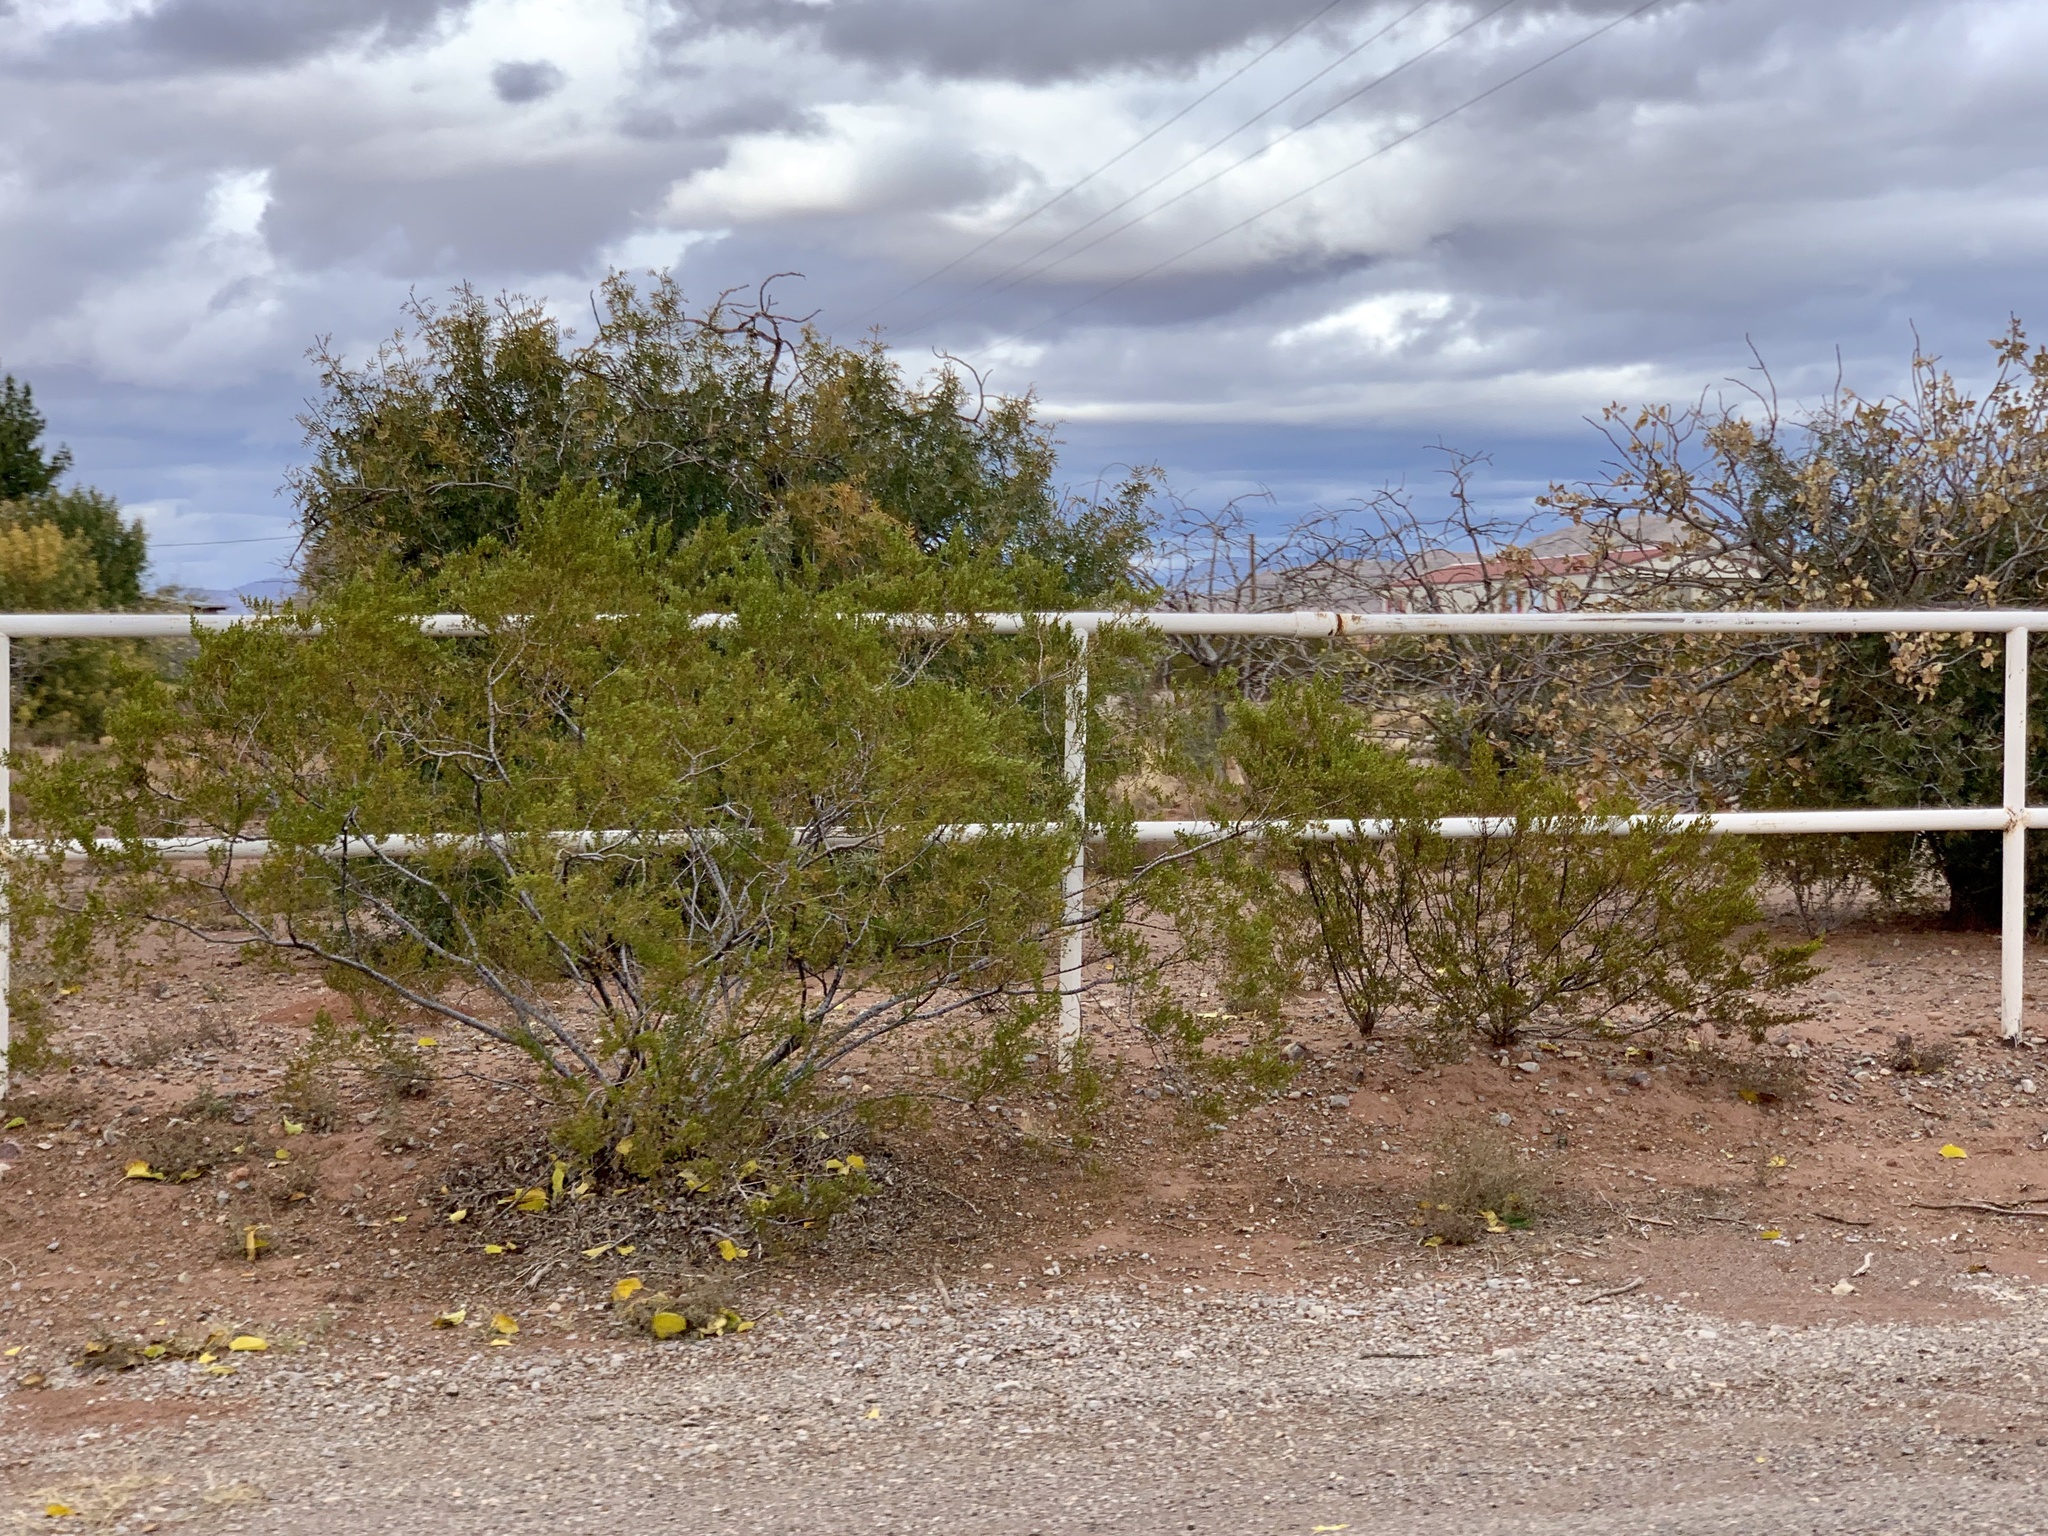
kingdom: Plantae
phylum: Tracheophyta
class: Magnoliopsida
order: Zygophyllales
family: Zygophyllaceae
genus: Larrea
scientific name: Larrea tridentata
